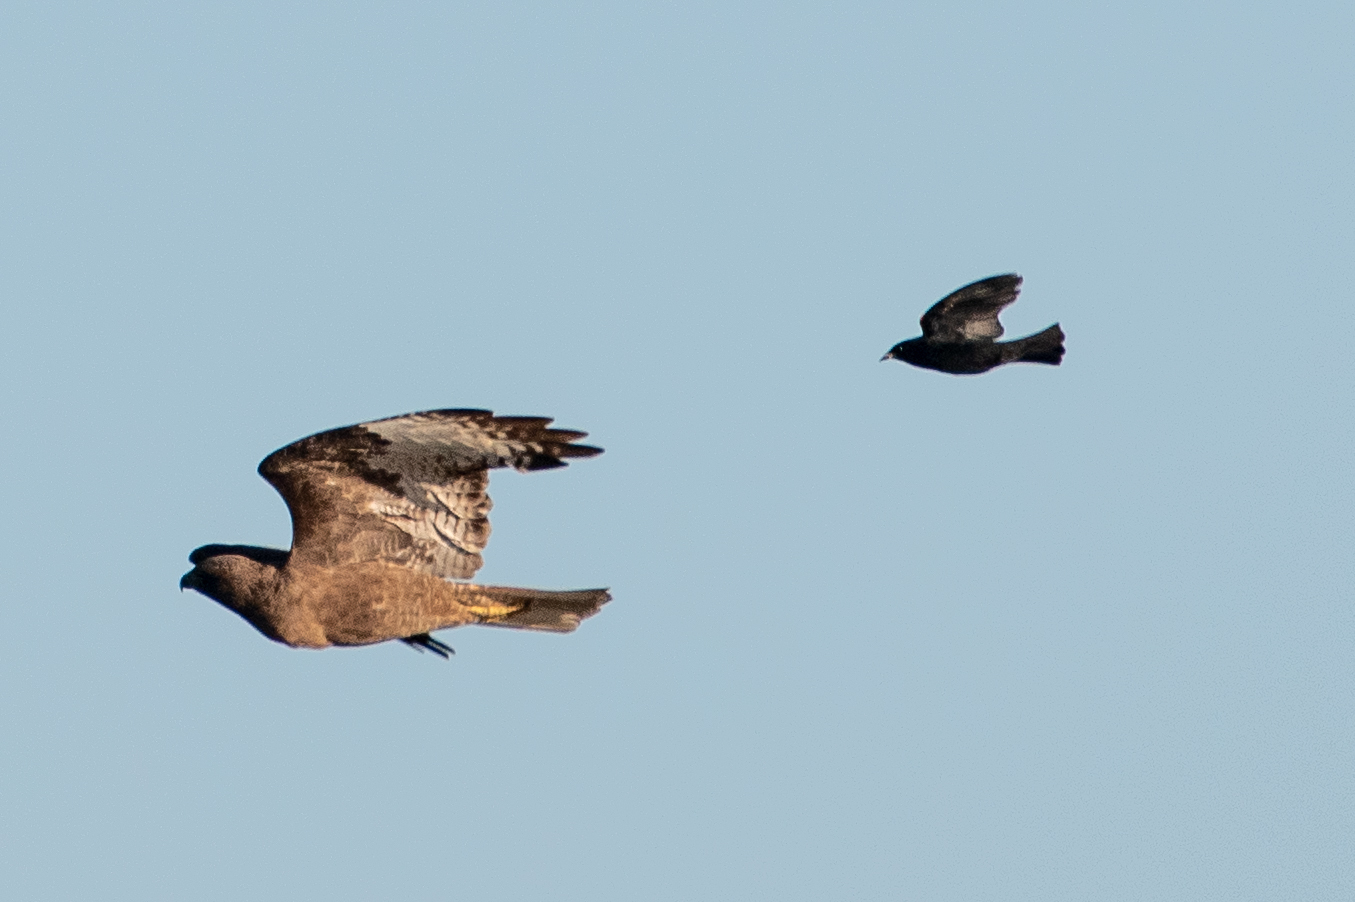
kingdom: Animalia
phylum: Chordata
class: Aves
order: Accipitriformes
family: Accipitridae
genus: Buteo
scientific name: Buteo jamaicensis
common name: Red-tailed hawk
